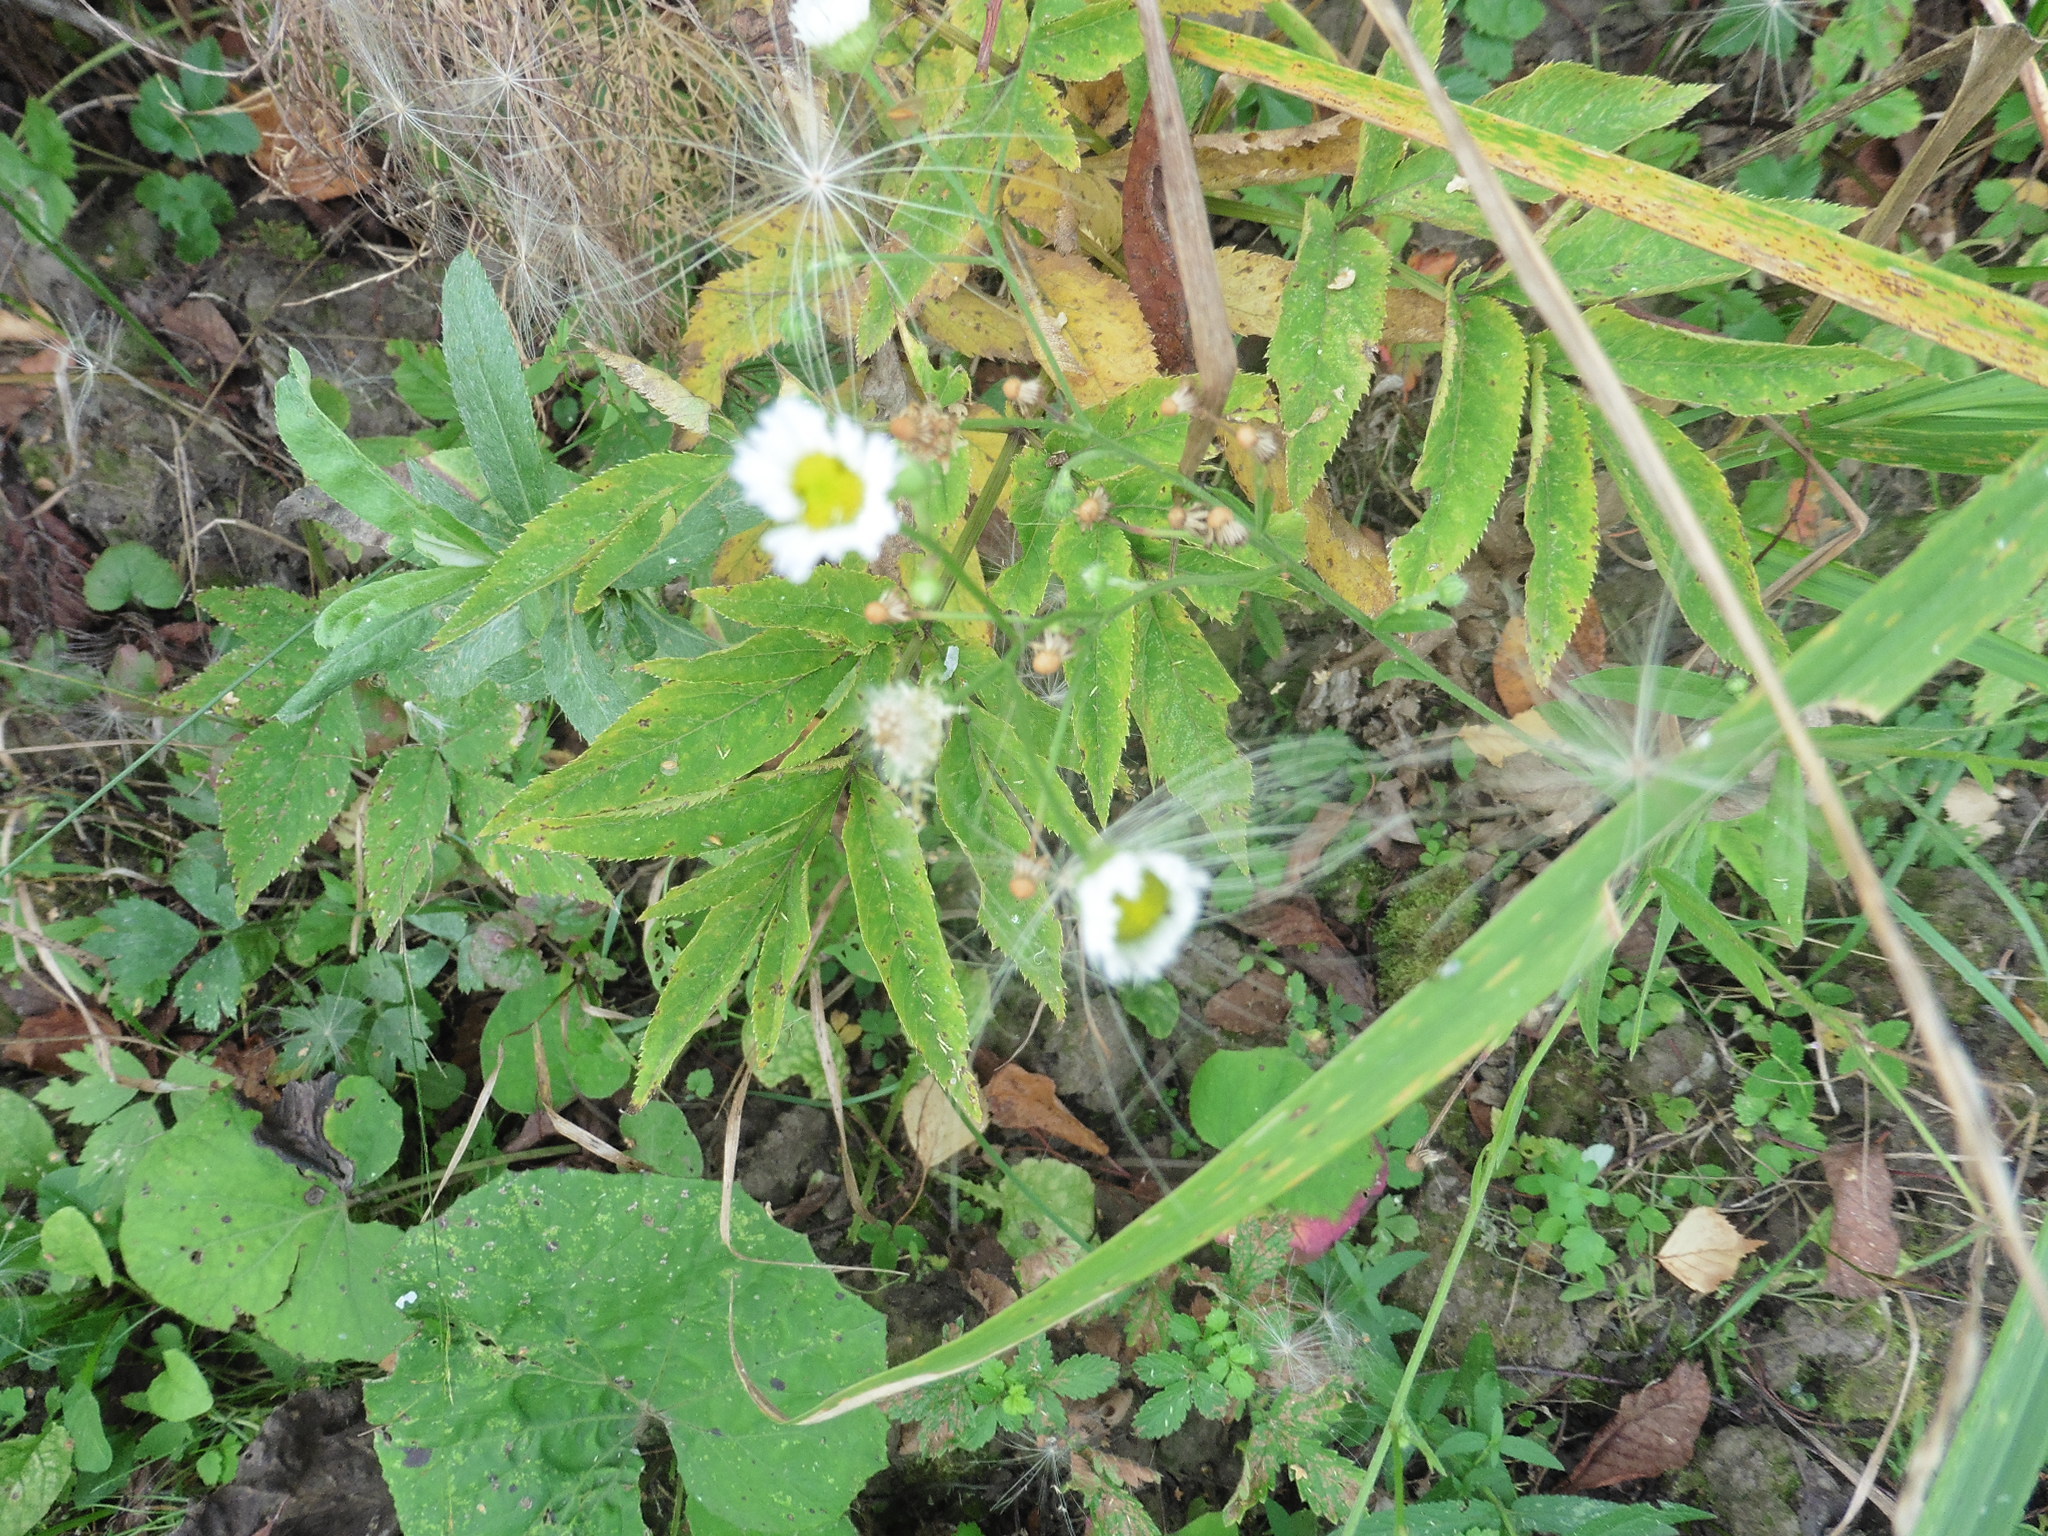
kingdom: Plantae
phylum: Tracheophyta
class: Magnoliopsida
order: Asterales
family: Asteraceae
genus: Erigeron
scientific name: Erigeron strigosus
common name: Common eastern fleabane
